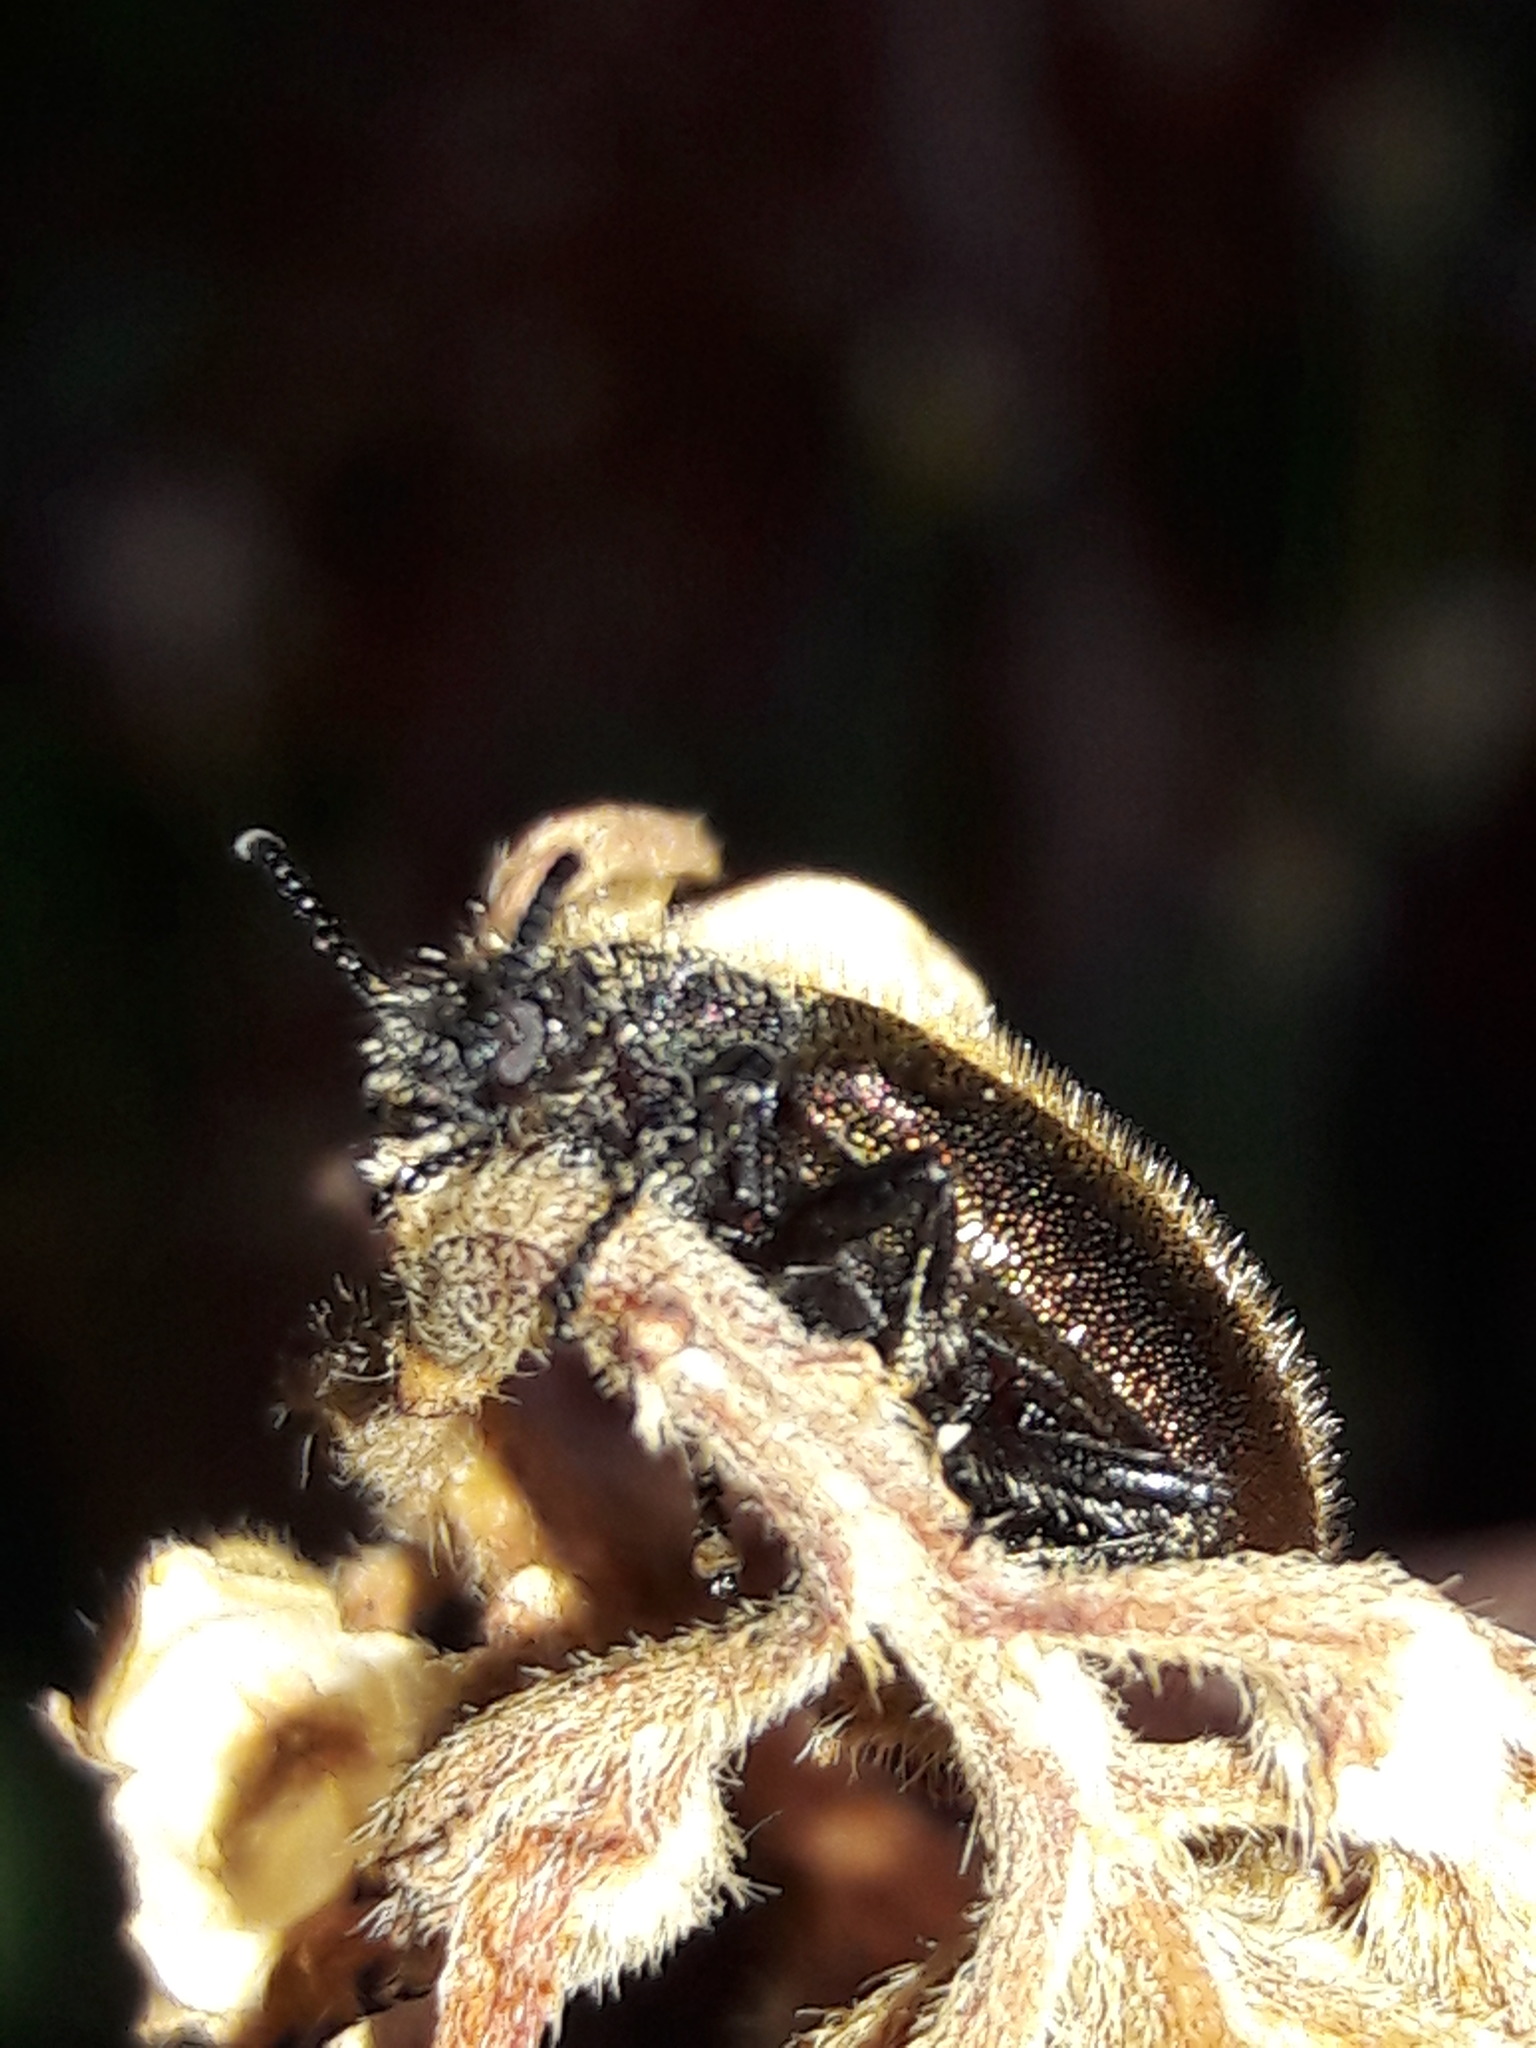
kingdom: Animalia
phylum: Arthropoda
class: Insecta
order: Coleoptera
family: Tenebrionidae
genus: Lagria
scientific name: Lagria villosa
